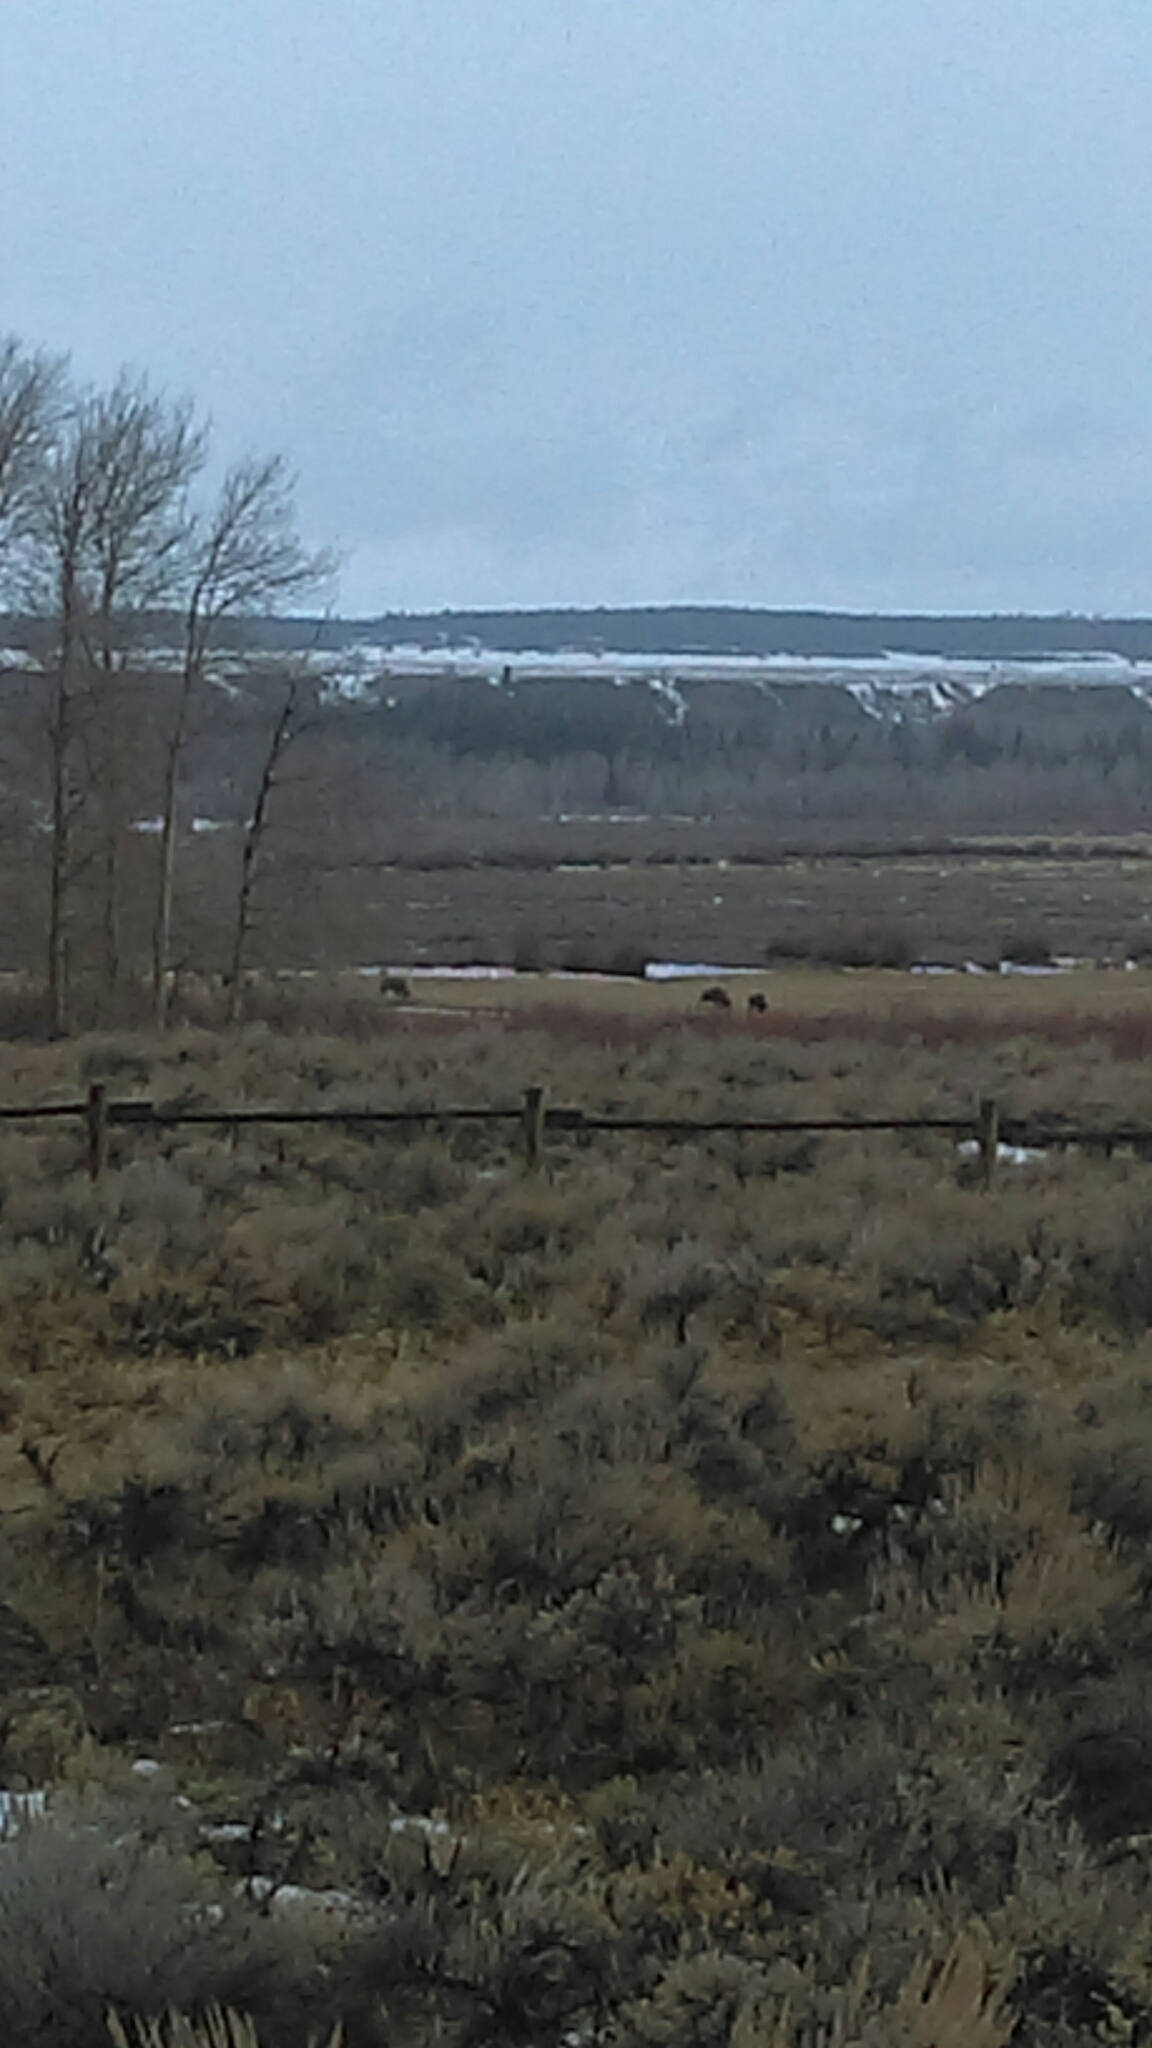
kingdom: Animalia
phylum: Chordata
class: Mammalia
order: Artiodactyla
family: Bovidae
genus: Bison
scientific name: Bison bison
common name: American bison
